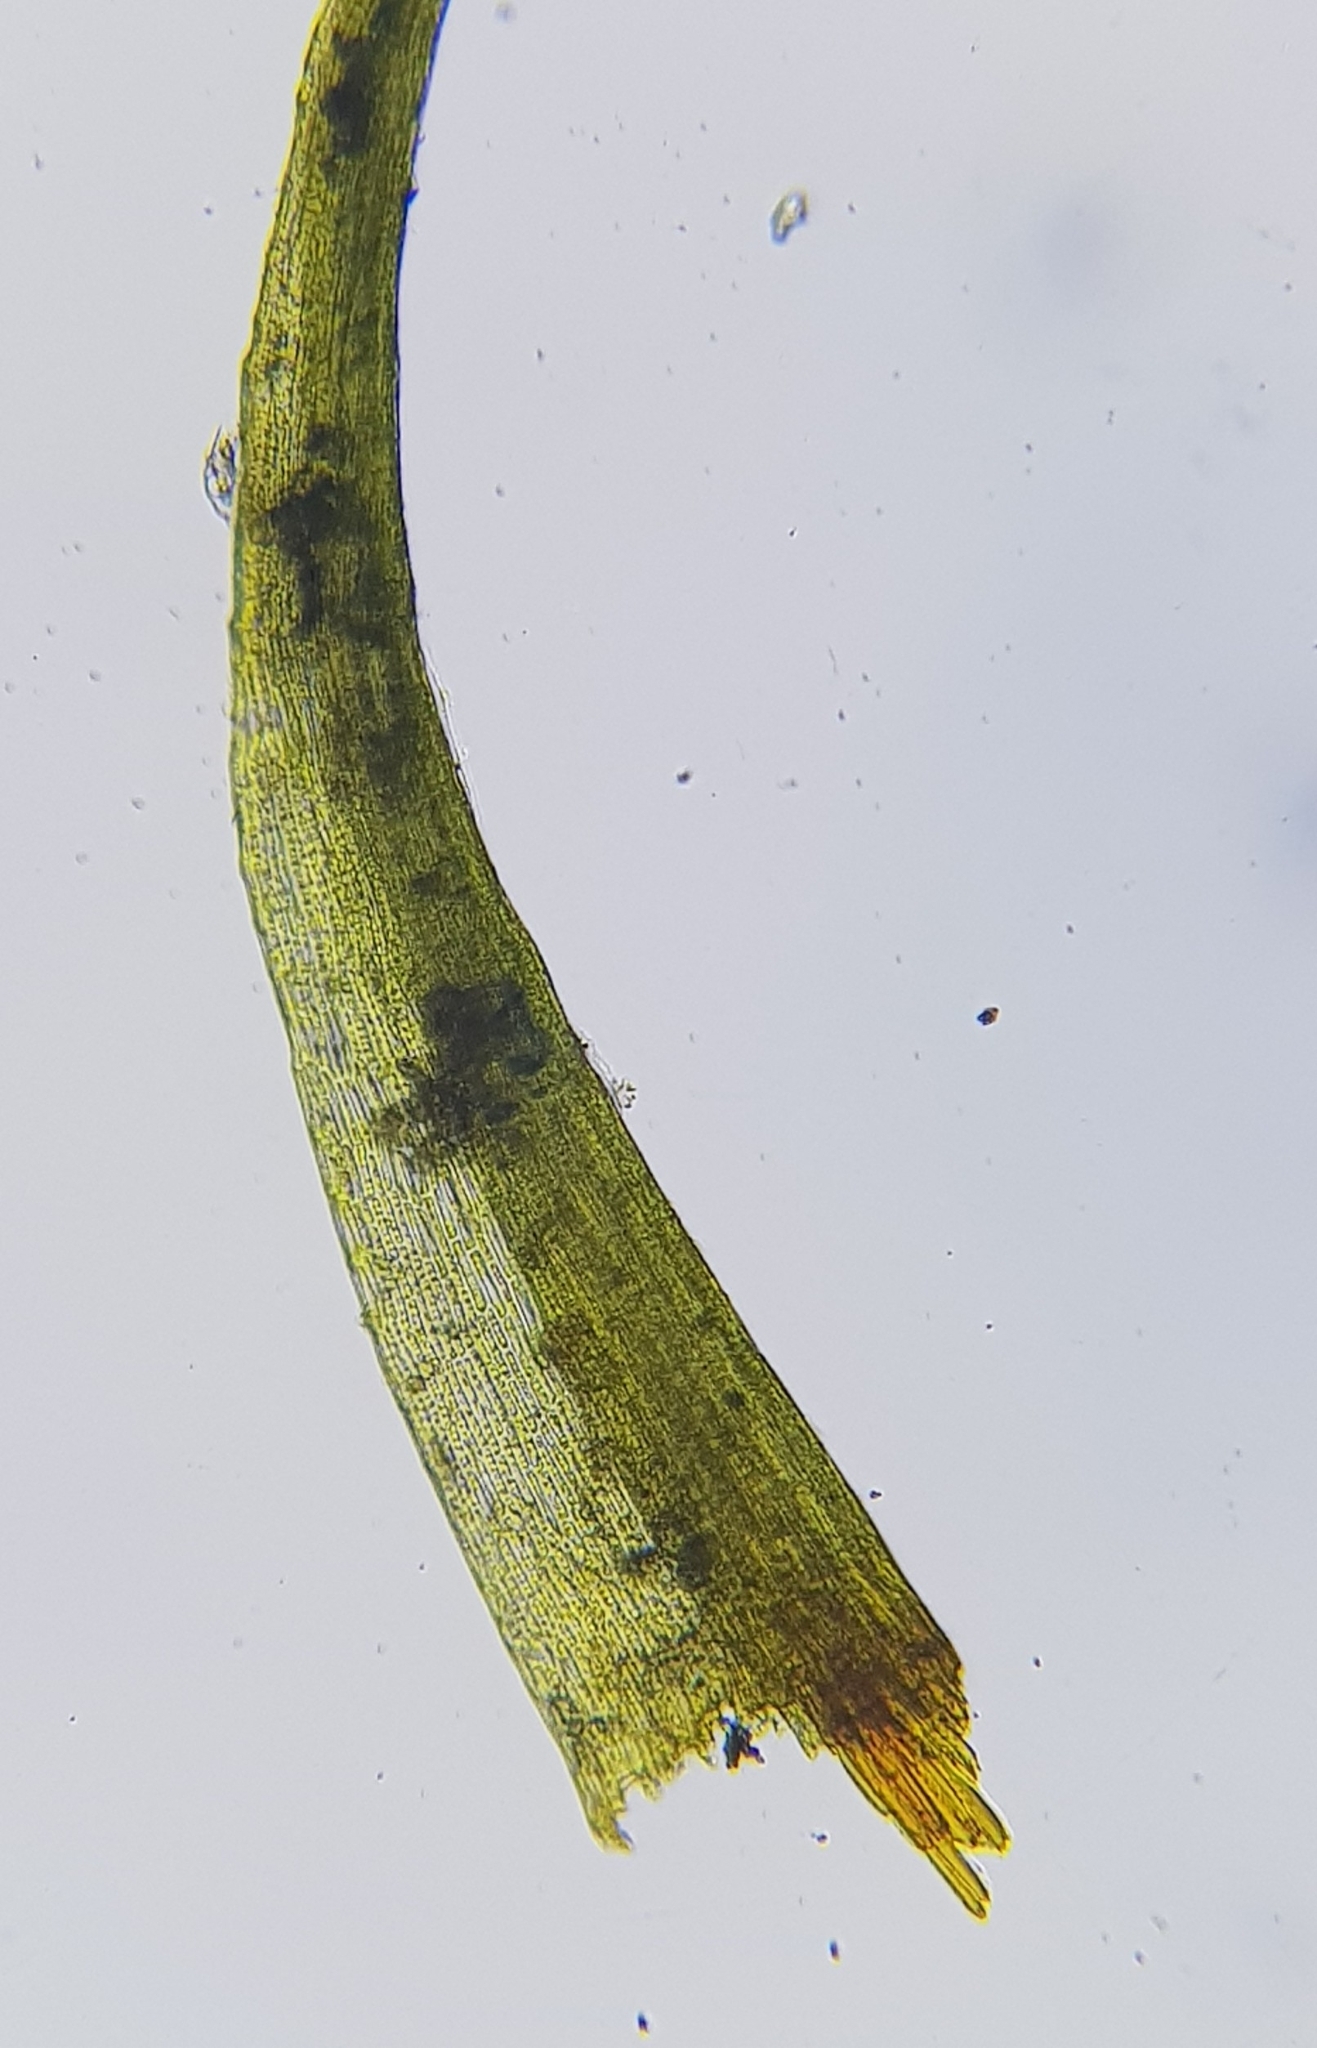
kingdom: Plantae
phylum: Bryophyta
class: Bryopsida
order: Dicranales
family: Ditrichaceae
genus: Ditrichum
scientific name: Ditrichum heteromallum
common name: Curve-leaved ditrichum
